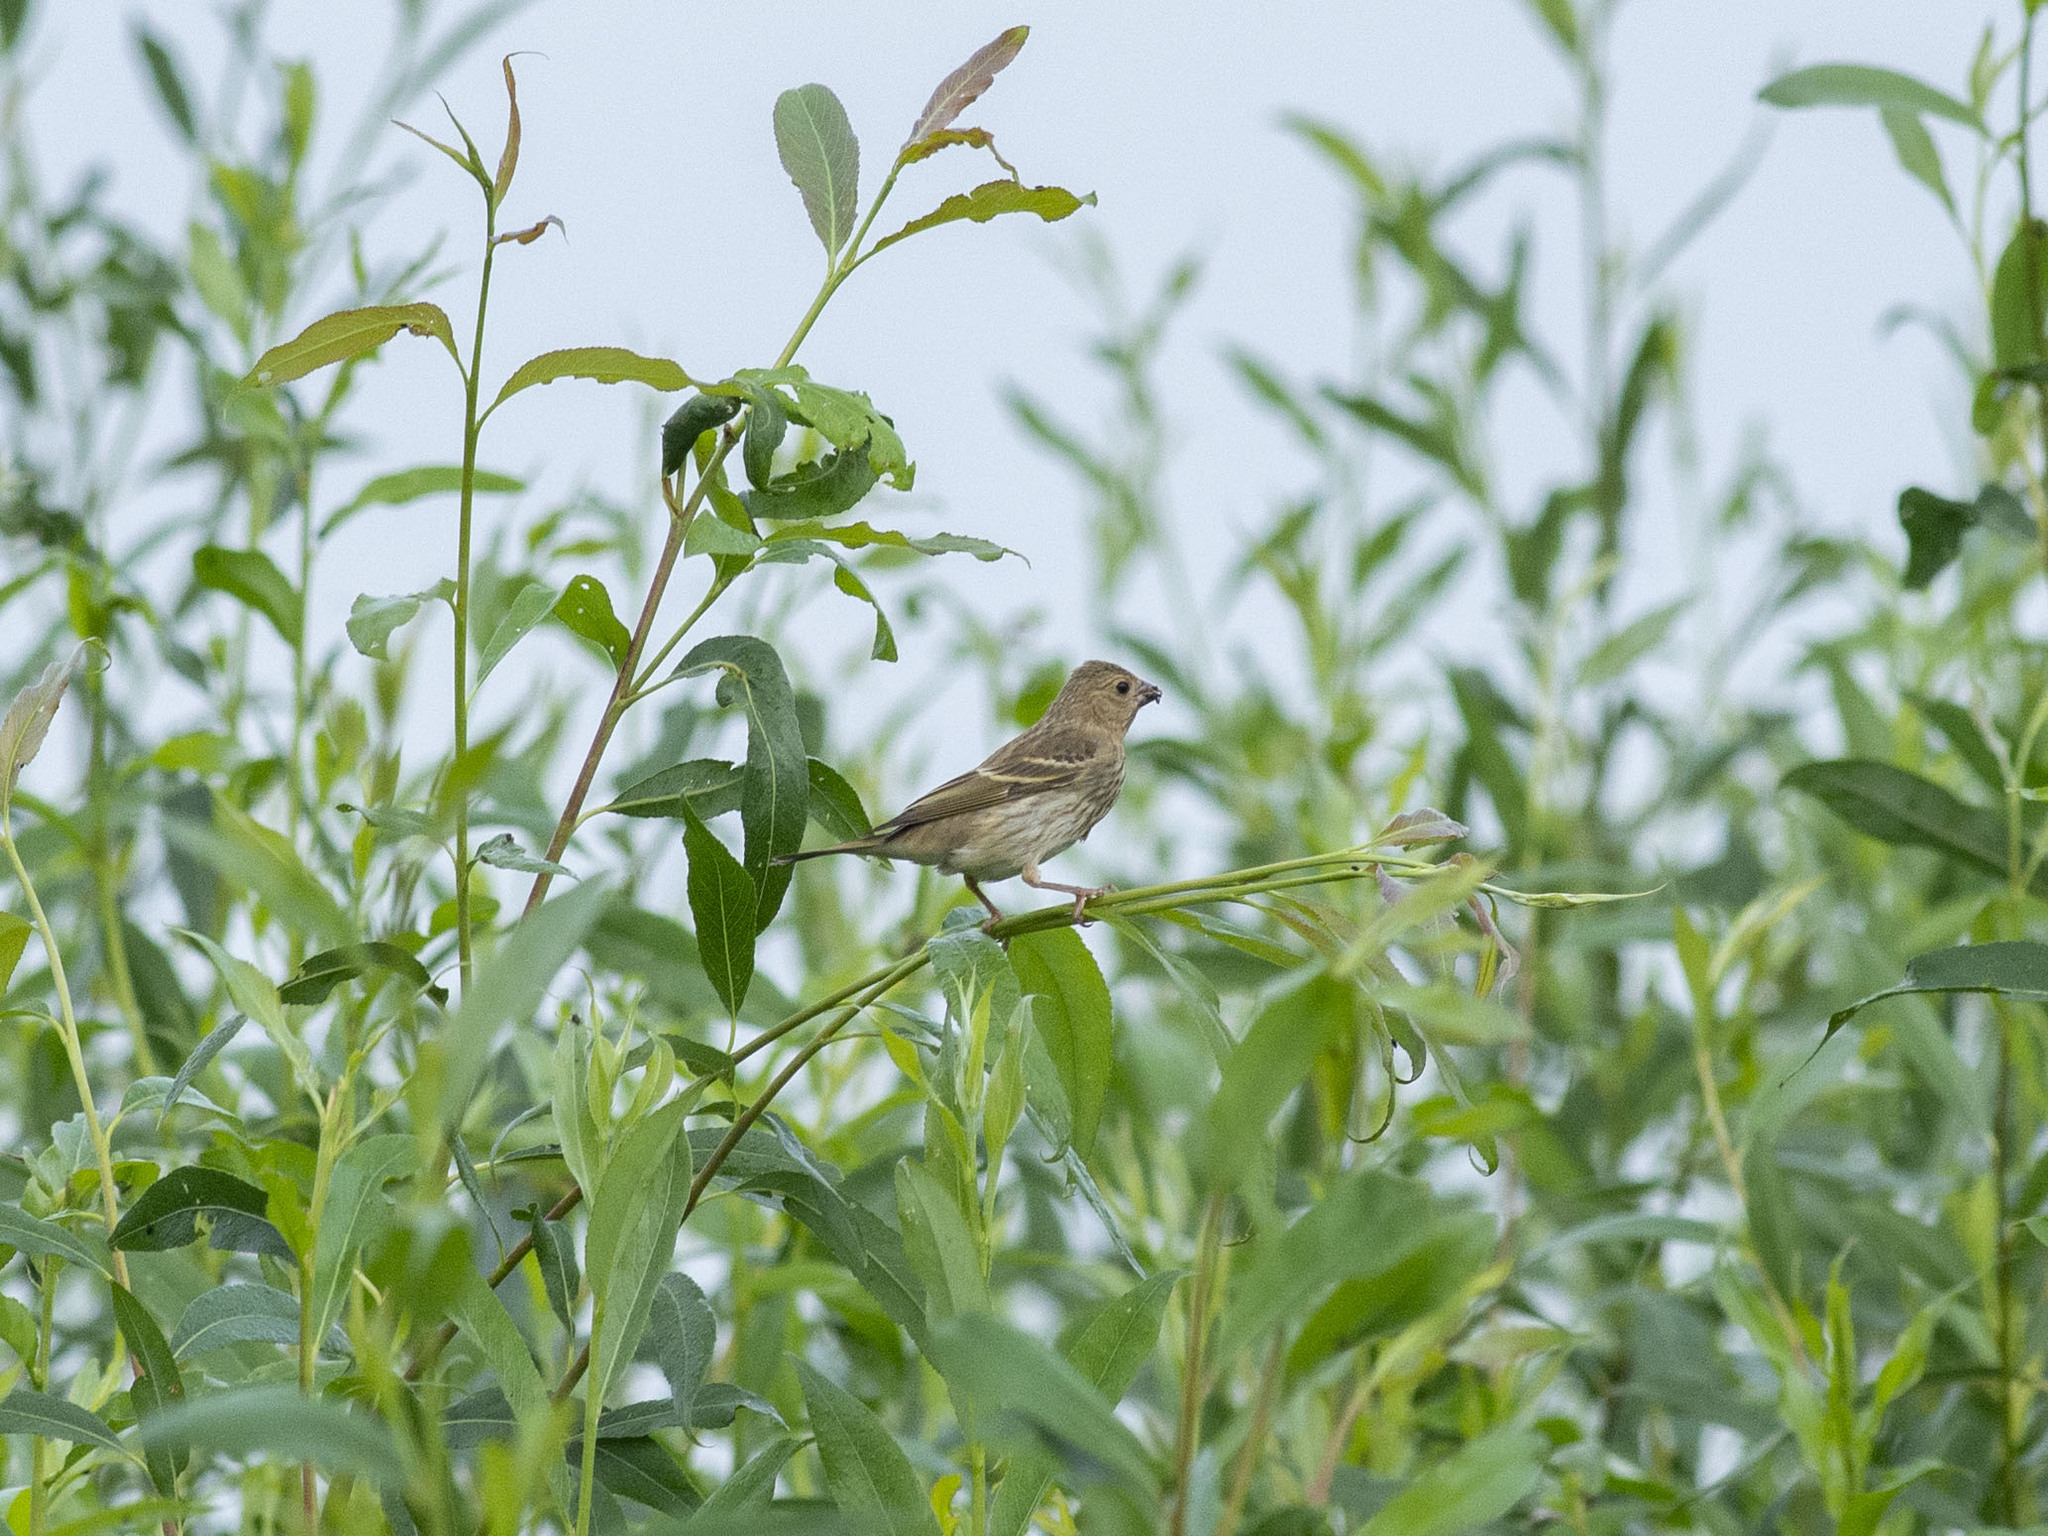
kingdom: Animalia
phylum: Chordata
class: Aves
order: Passeriformes
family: Fringillidae
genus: Carpodacus
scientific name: Carpodacus erythrinus
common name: Common rosefinch
